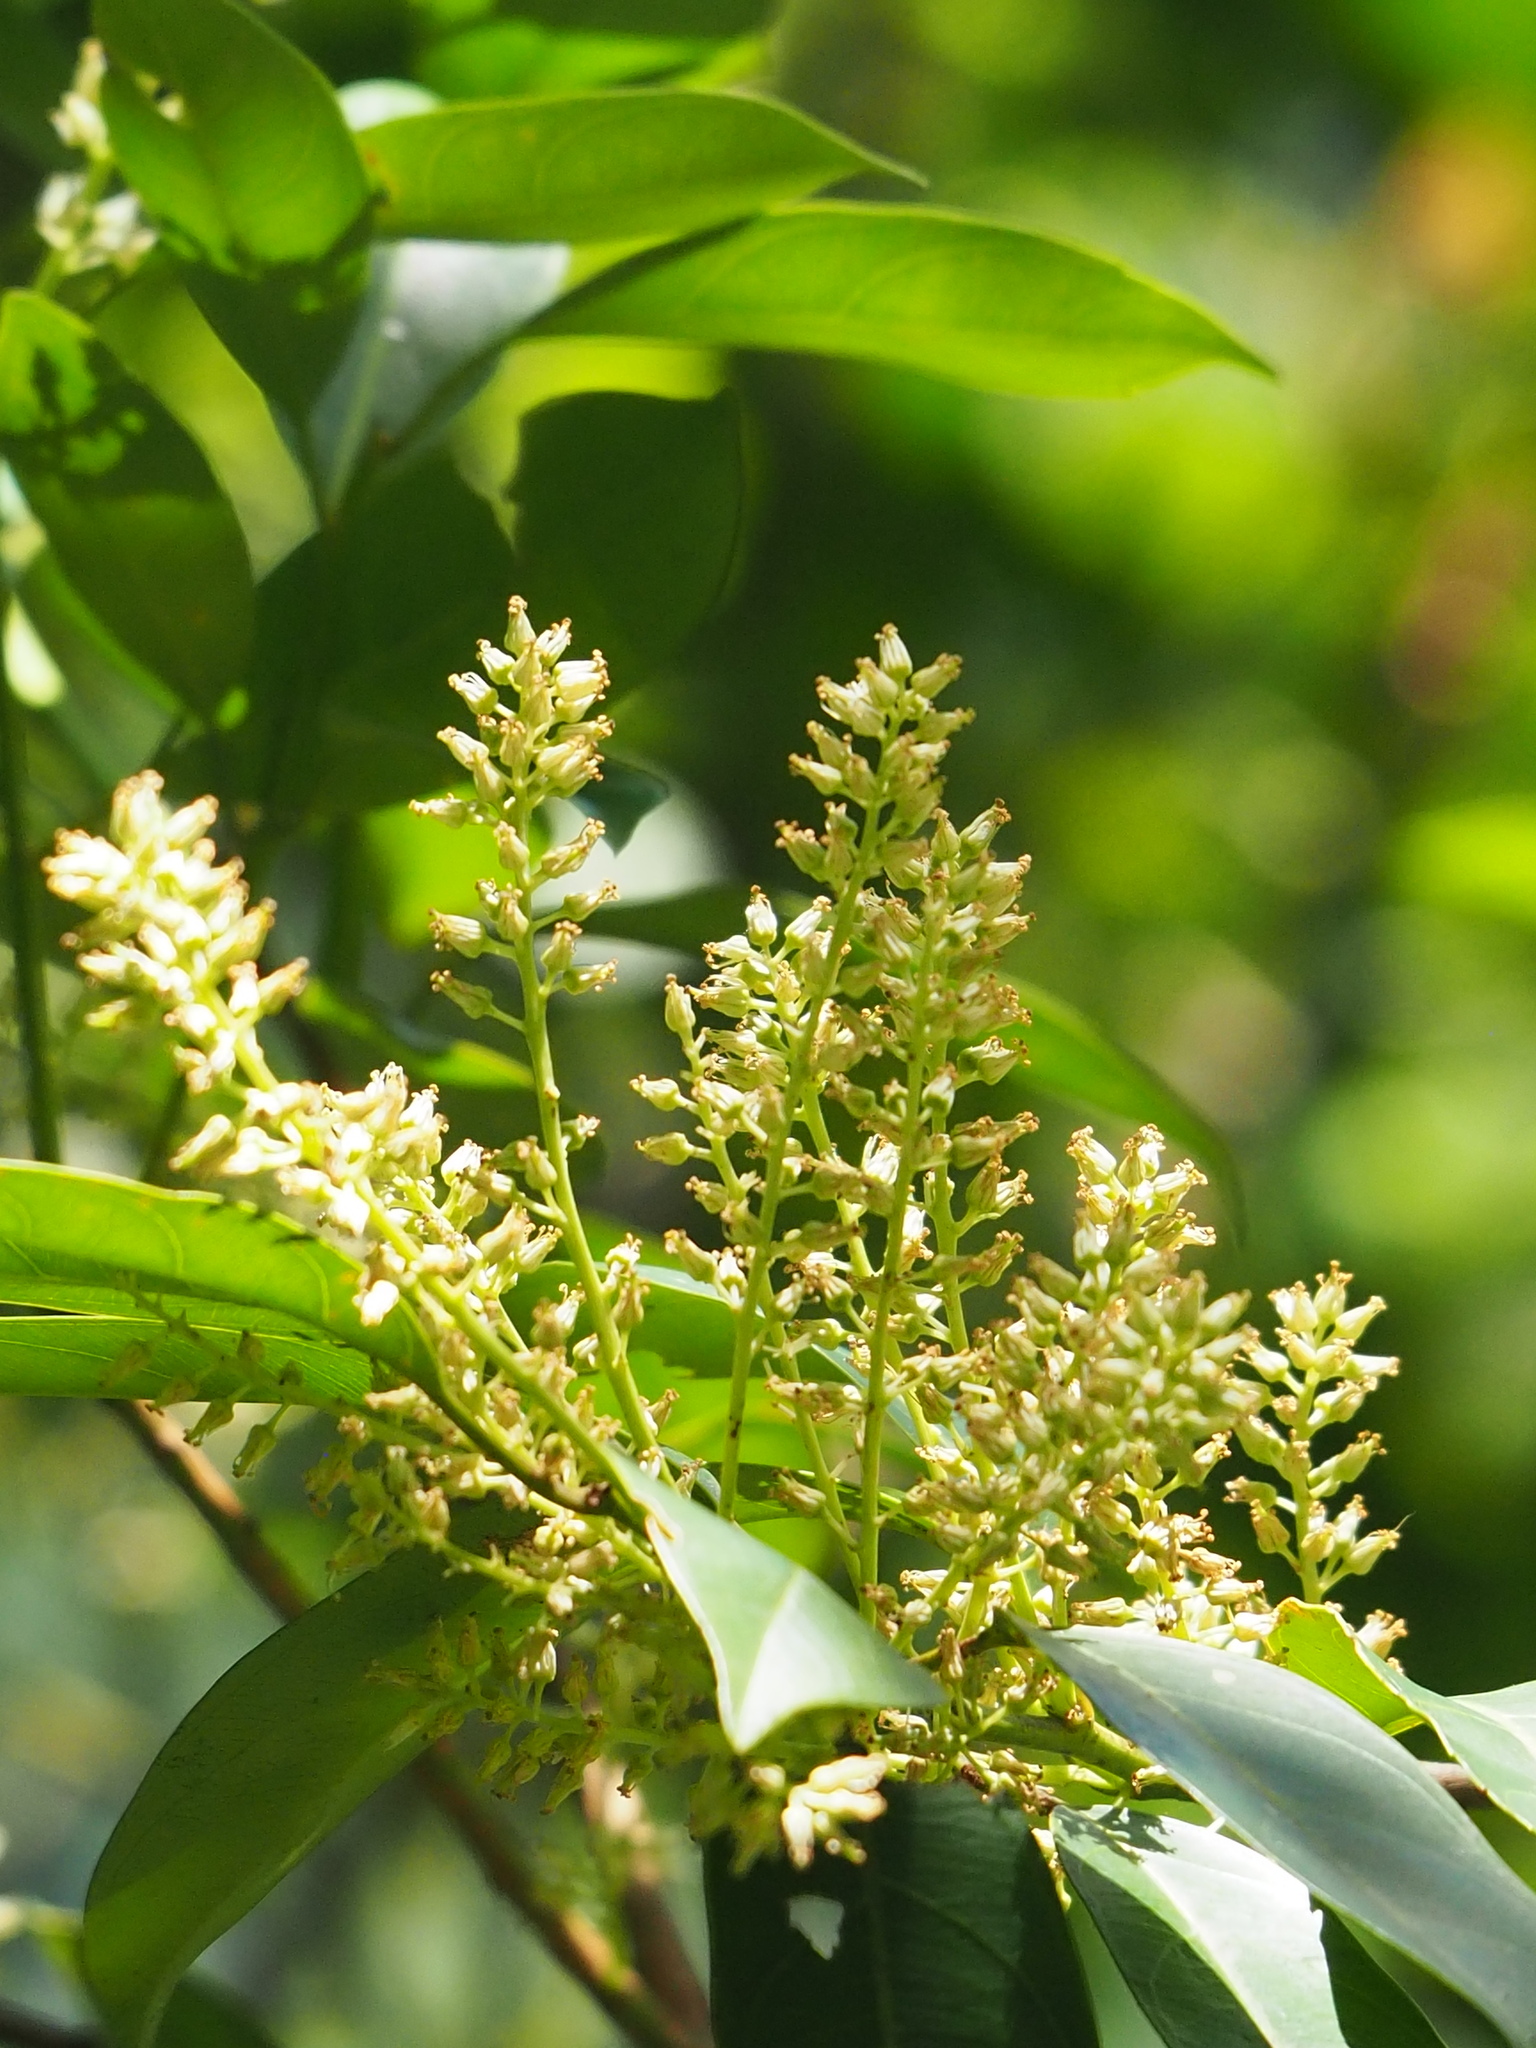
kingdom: Plantae
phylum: Tracheophyta
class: Magnoliopsida
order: Saxifragales
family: Iteaceae
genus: Itea
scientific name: Itea oldhamii
